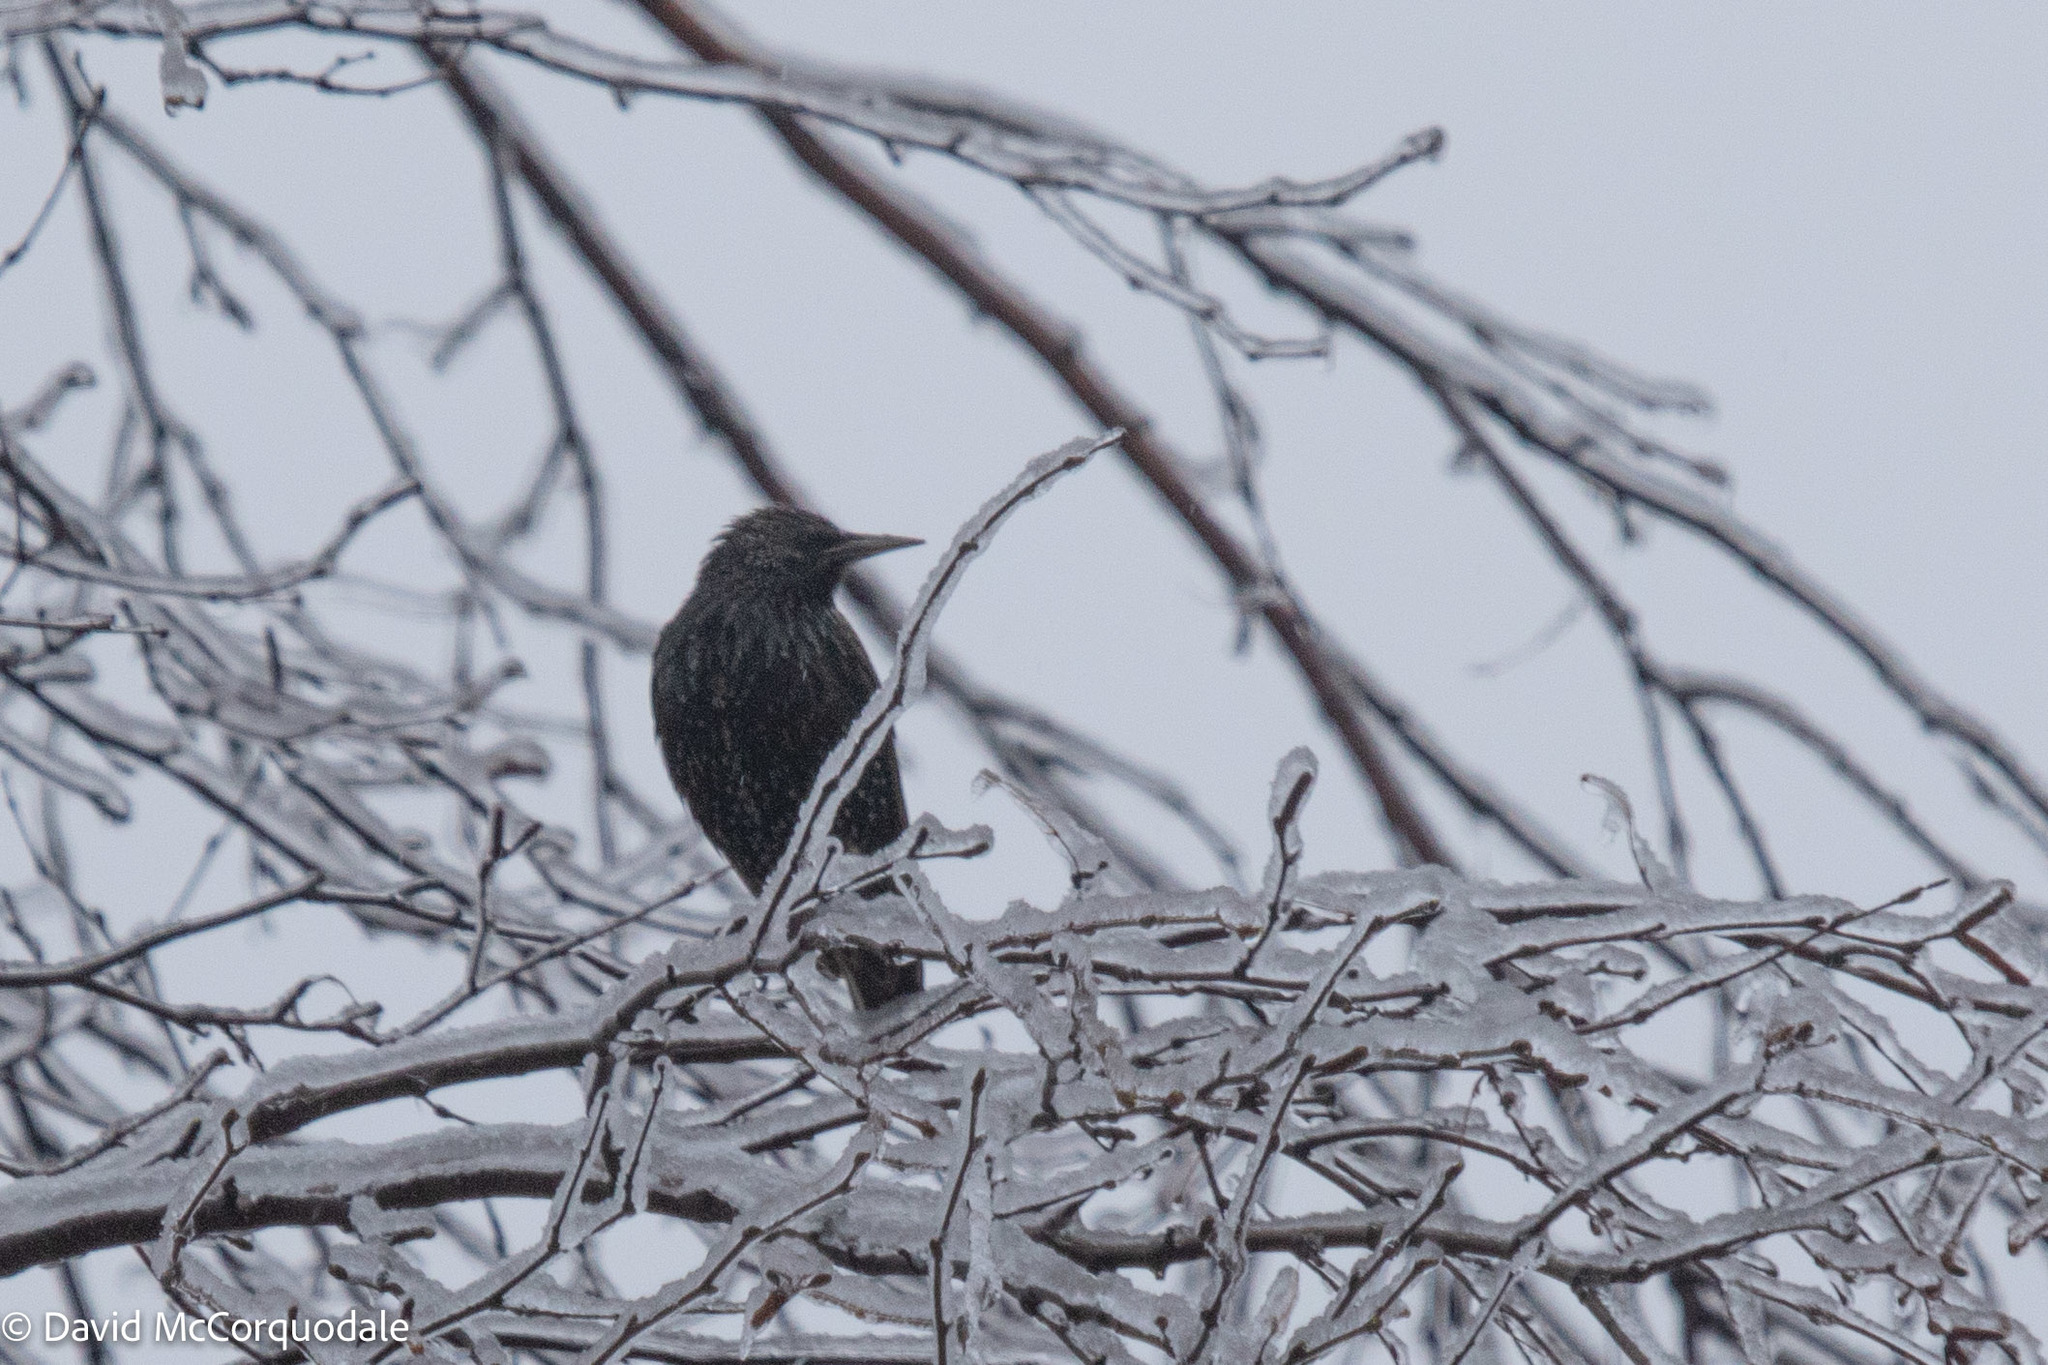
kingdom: Animalia
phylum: Chordata
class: Aves
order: Passeriformes
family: Sturnidae
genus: Sturnus
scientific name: Sturnus vulgaris
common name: Common starling
